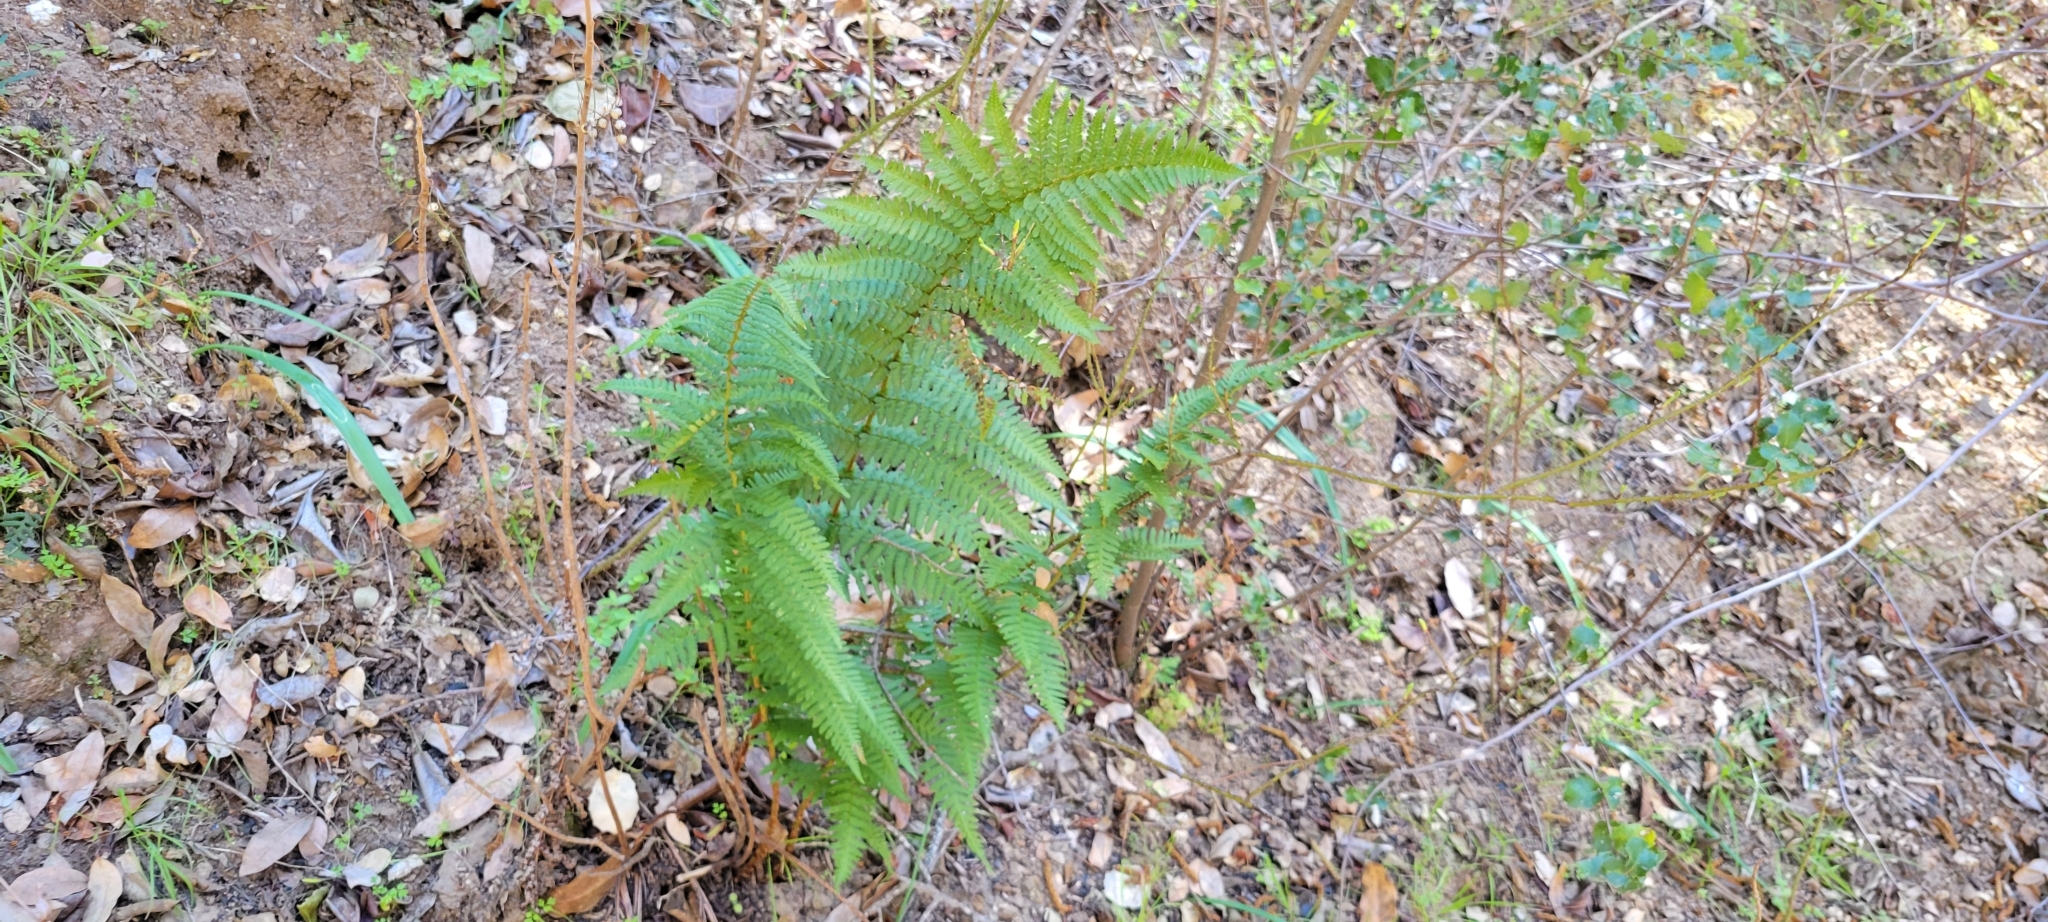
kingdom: Plantae
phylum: Tracheophyta
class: Polypodiopsida
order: Polypodiales
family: Dryopteridaceae
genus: Dryopteris
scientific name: Dryopteris arguta
